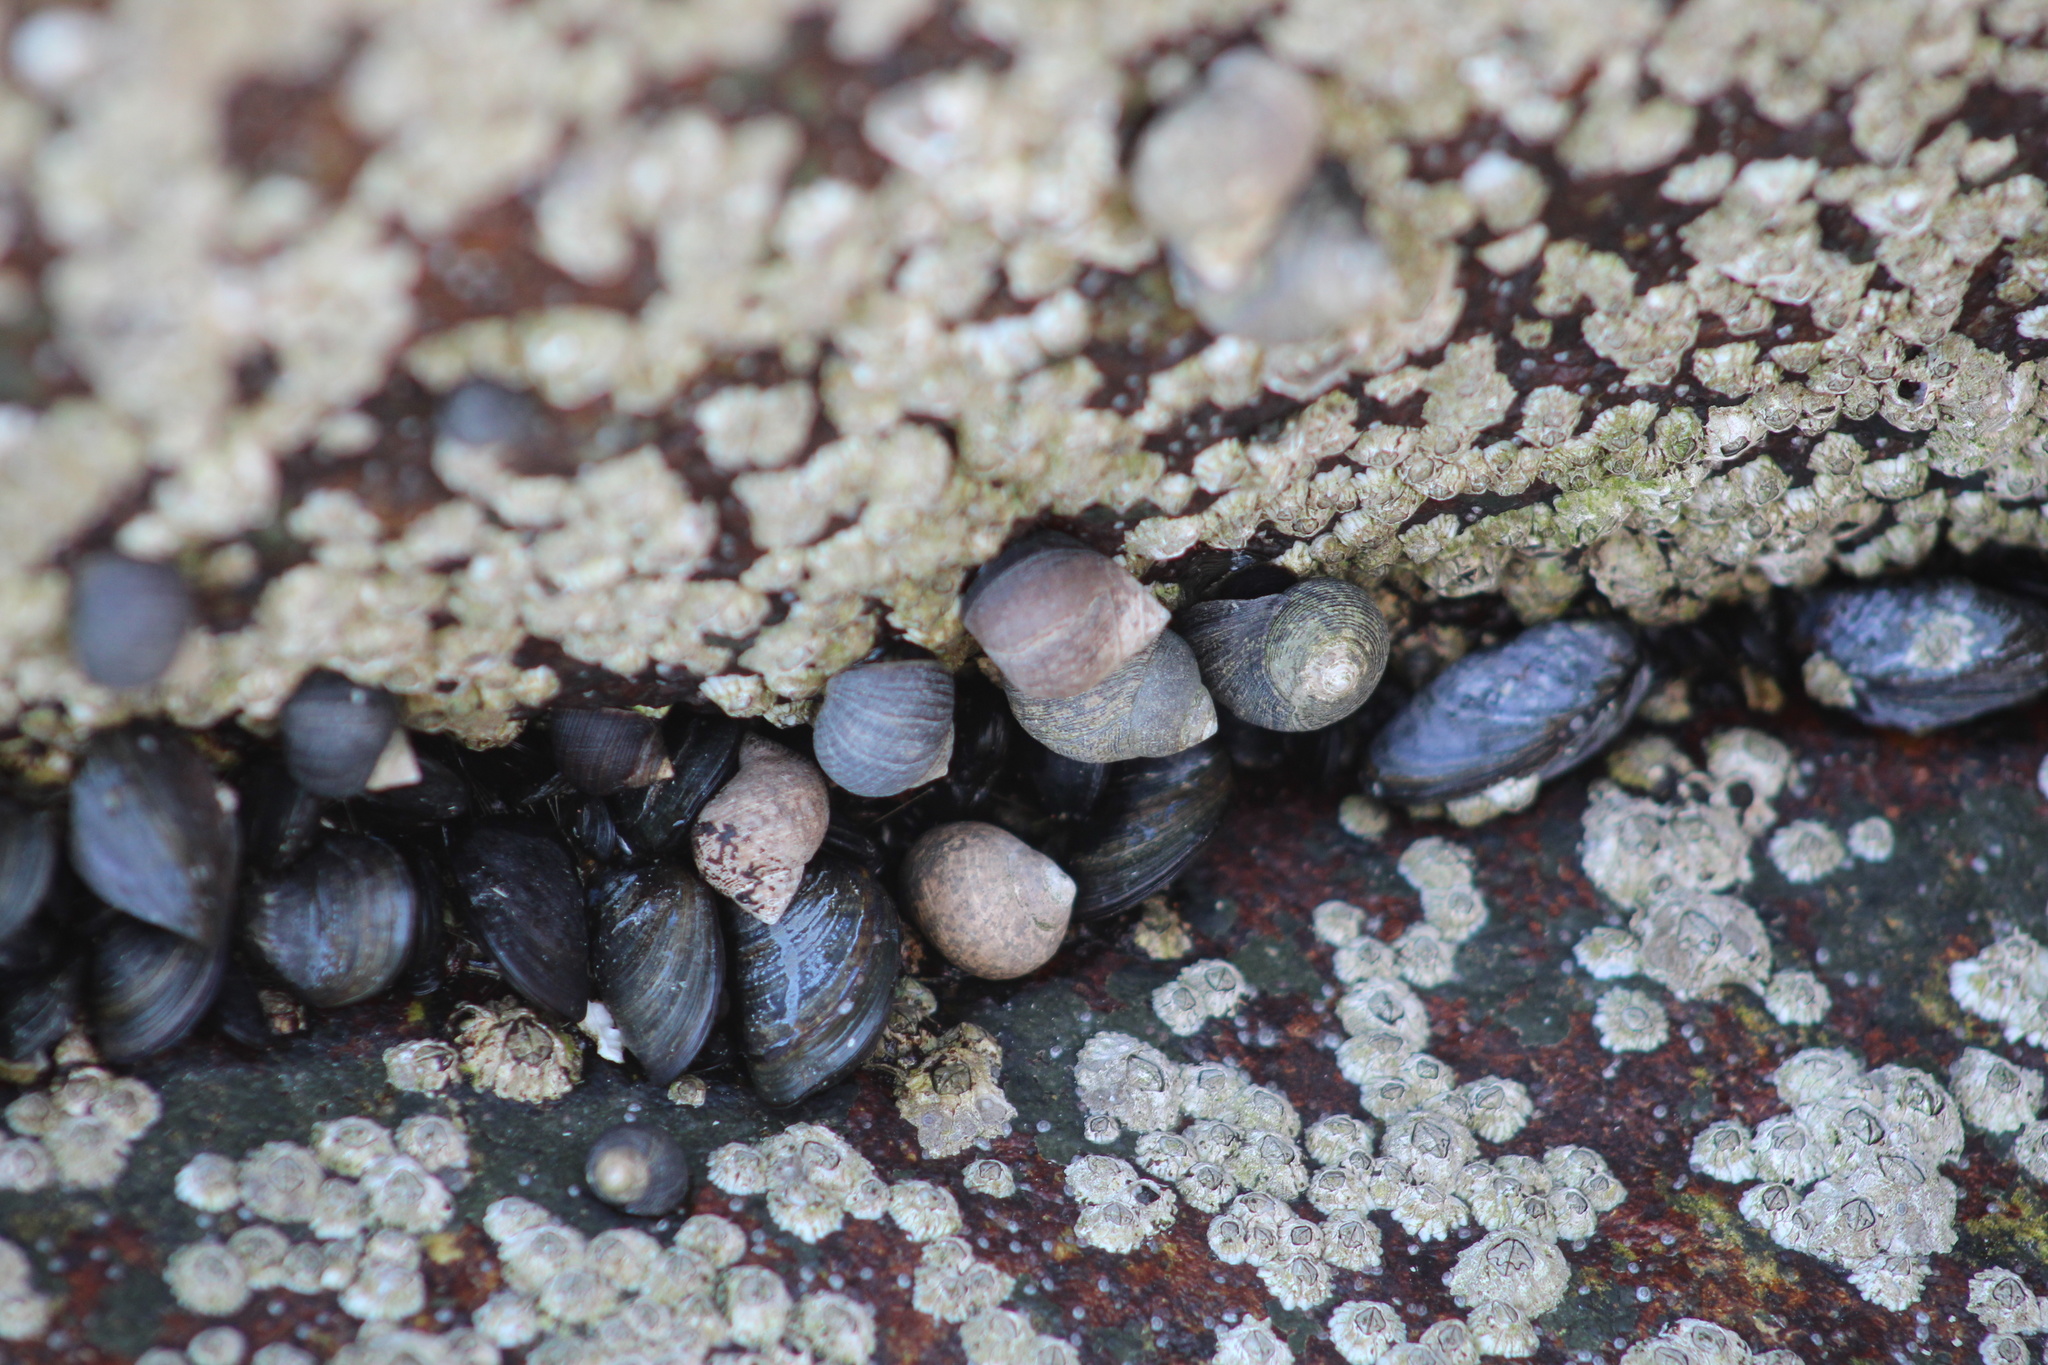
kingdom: Animalia
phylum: Mollusca
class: Gastropoda
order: Littorinimorpha
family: Littorinidae
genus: Littorina
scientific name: Littorina littorea
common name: Common periwinkle
